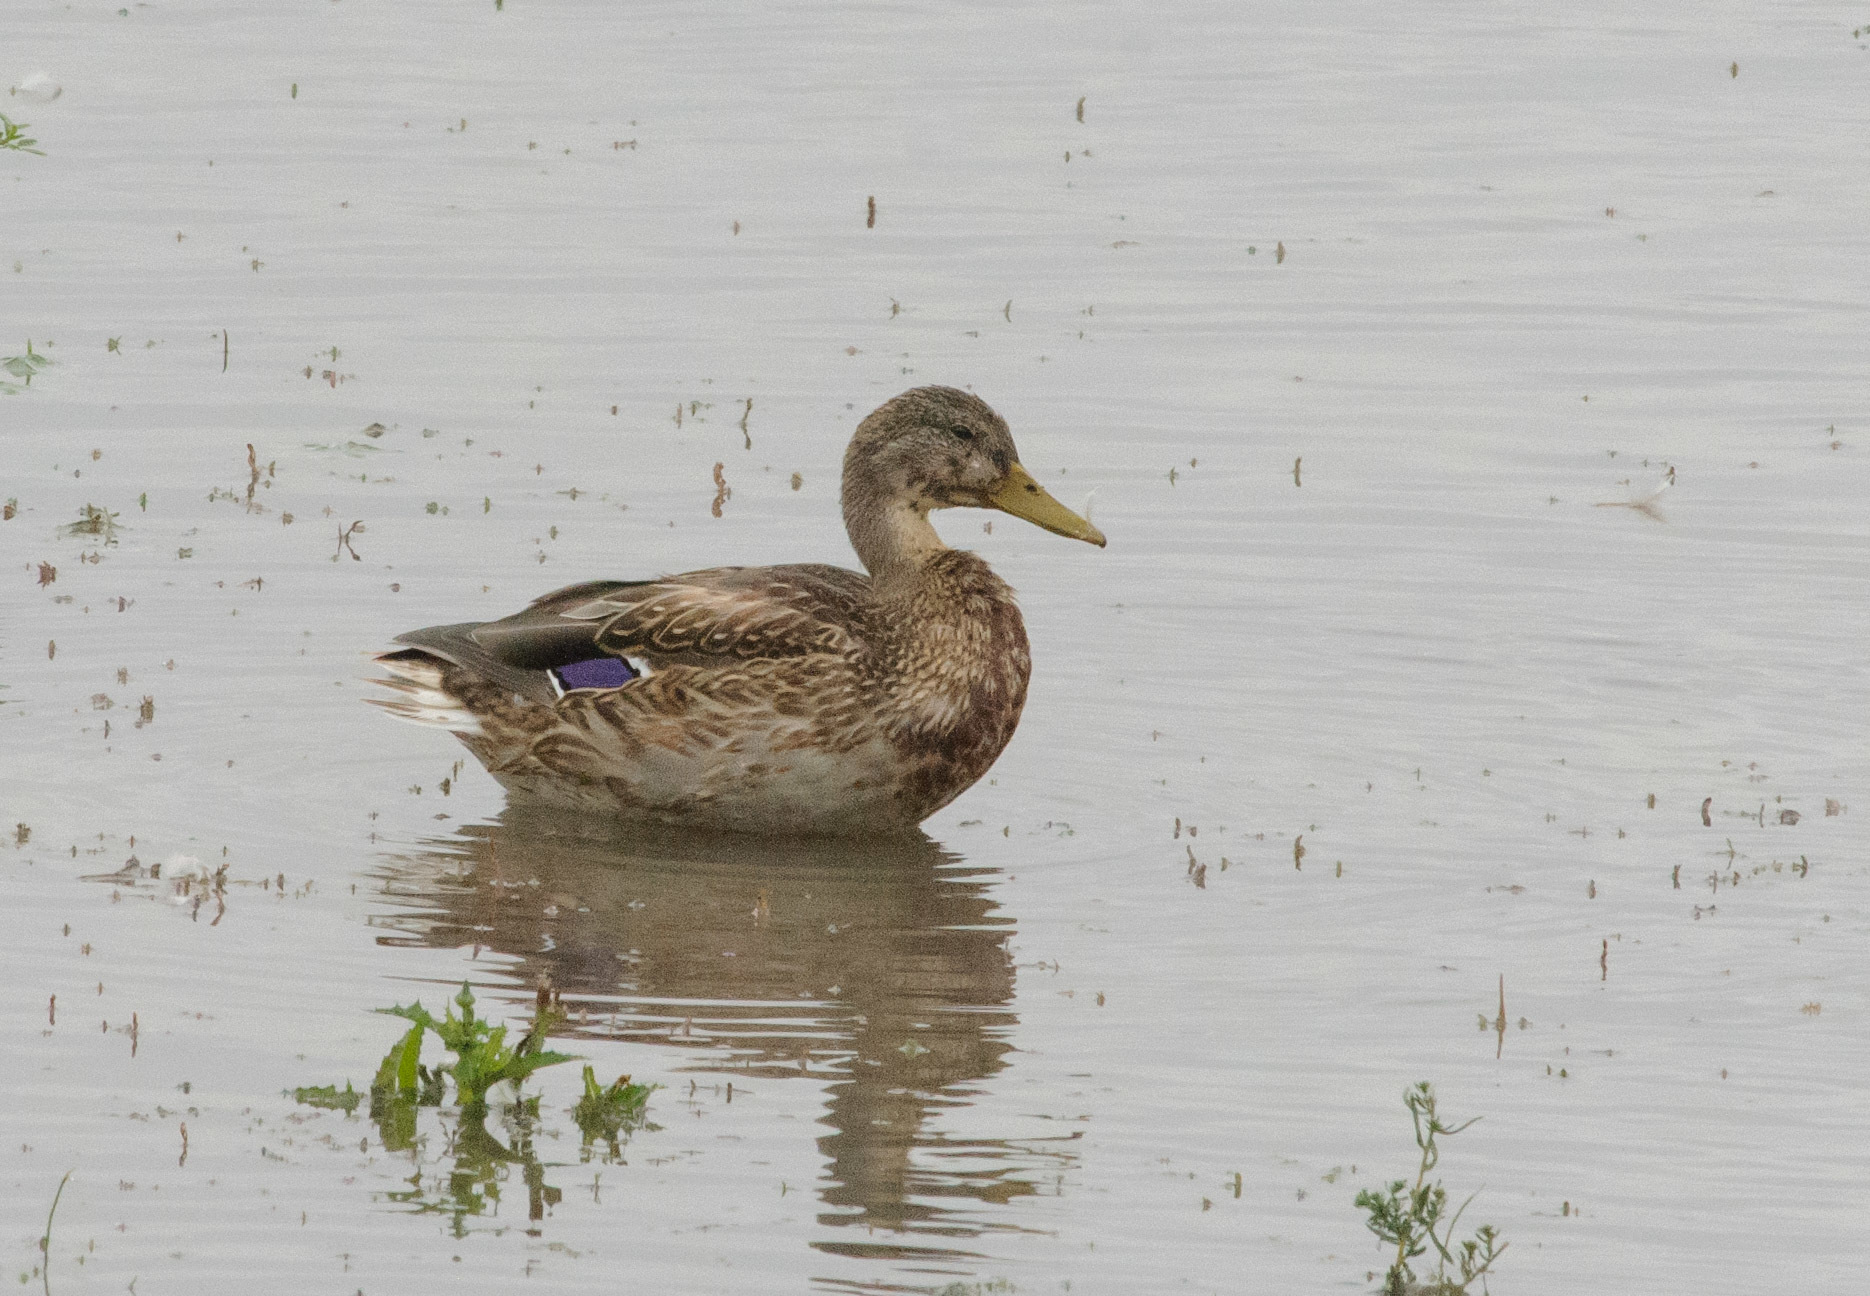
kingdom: Animalia
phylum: Chordata
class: Aves
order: Anseriformes
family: Anatidae
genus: Anas
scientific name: Anas platyrhynchos
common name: Mallard
